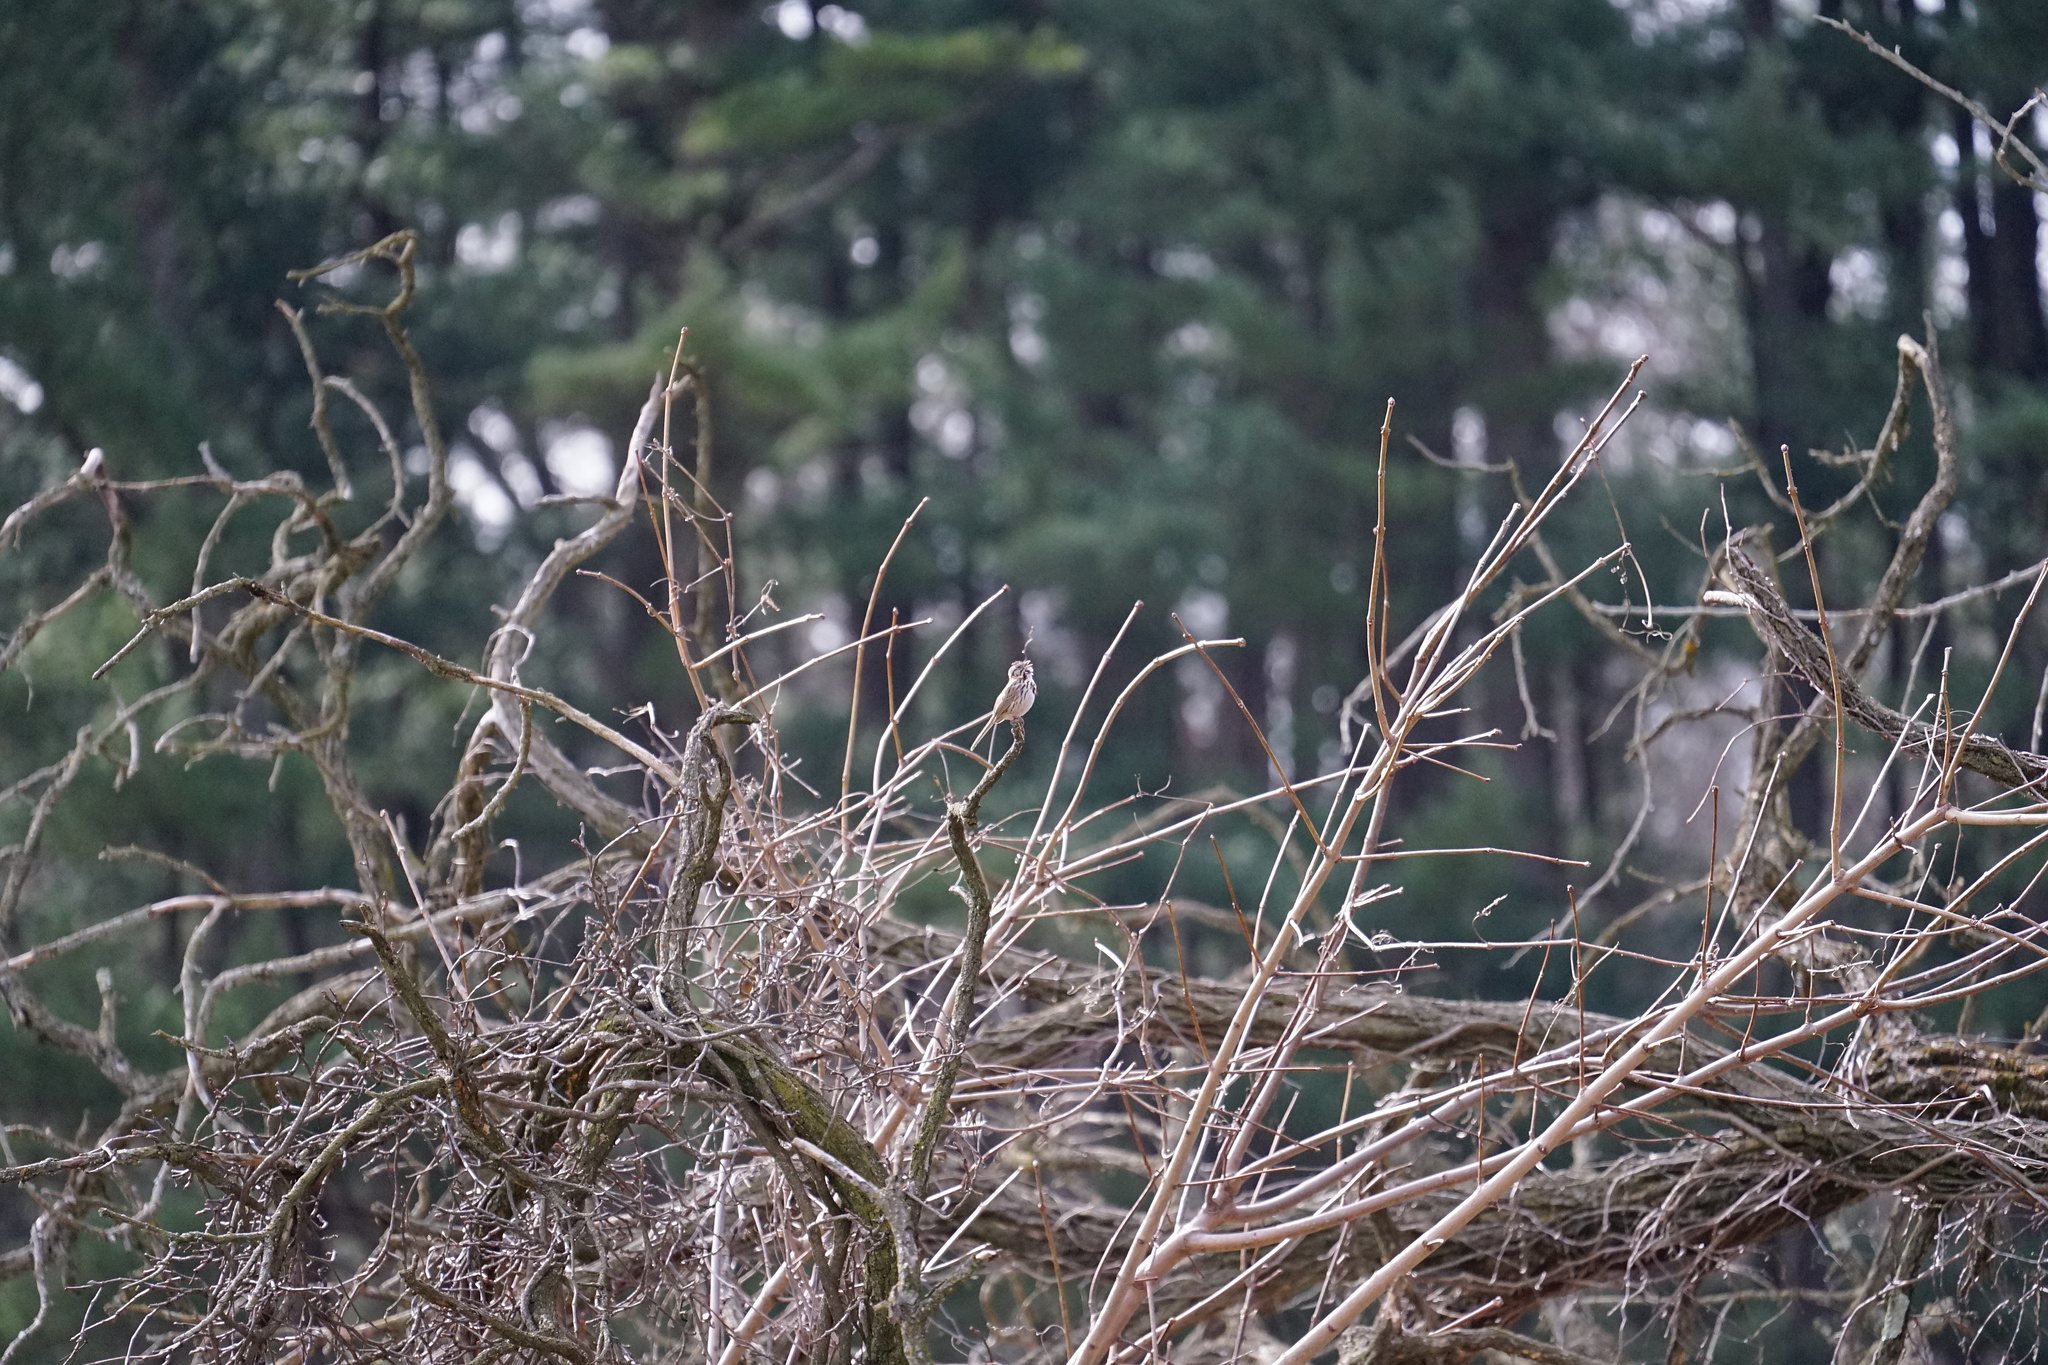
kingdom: Animalia
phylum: Chordata
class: Aves
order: Passeriformes
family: Passerellidae
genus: Melospiza
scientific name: Melospiza melodia
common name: Song sparrow
